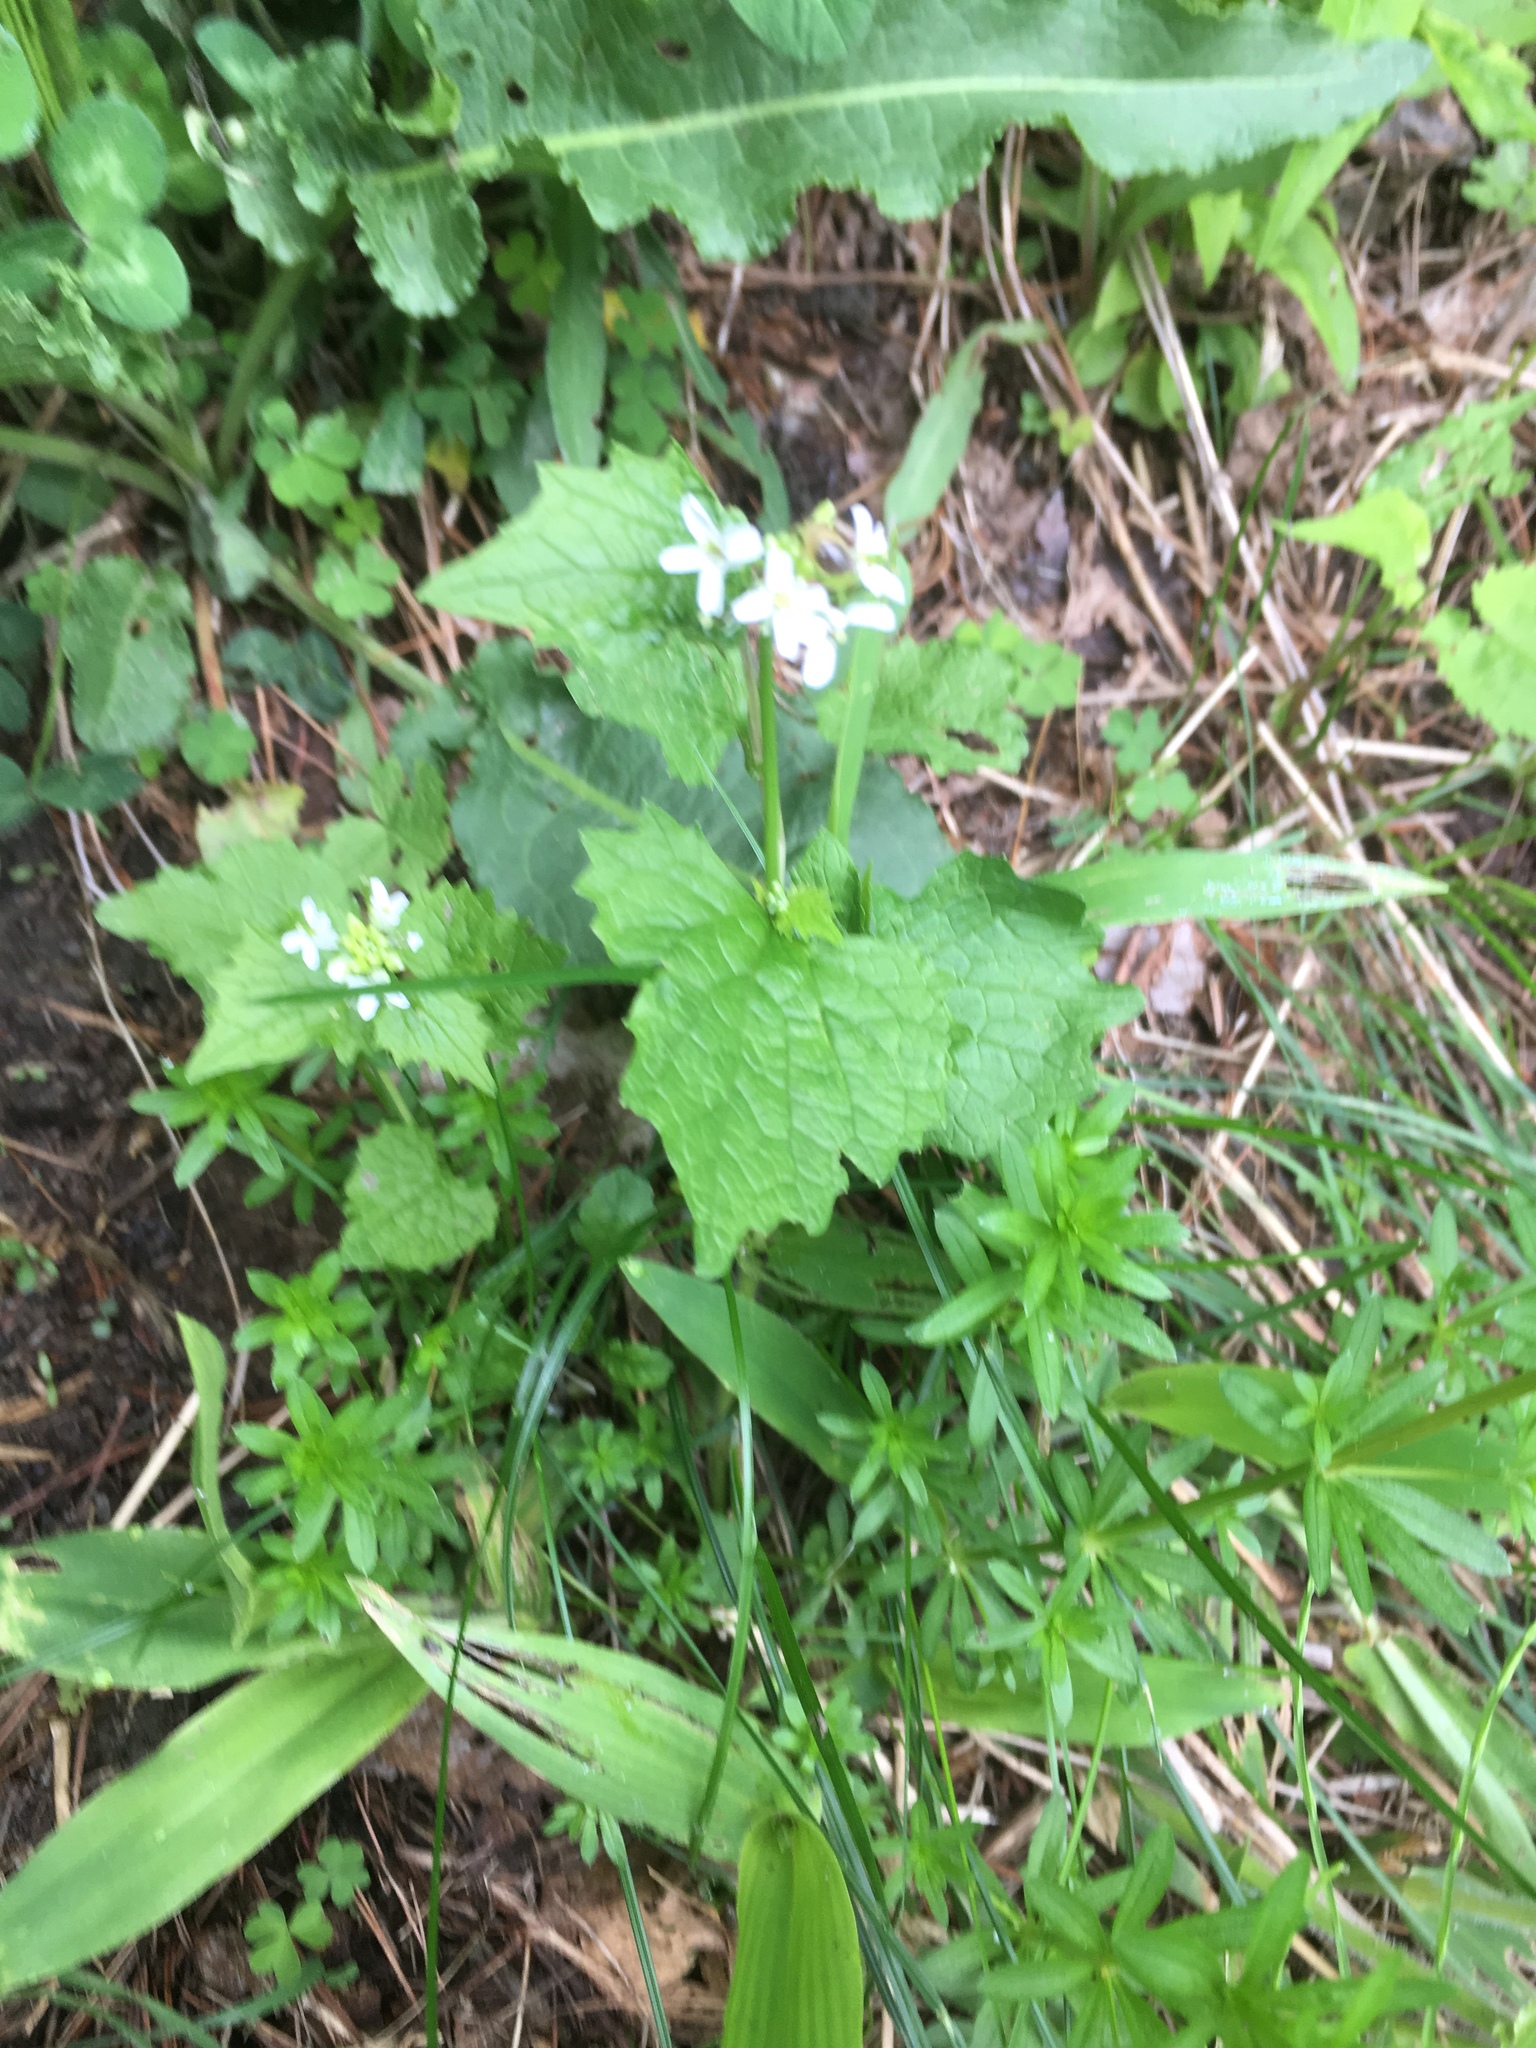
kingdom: Plantae
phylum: Tracheophyta
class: Magnoliopsida
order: Brassicales
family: Brassicaceae
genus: Alliaria
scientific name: Alliaria petiolata
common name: Garlic mustard
